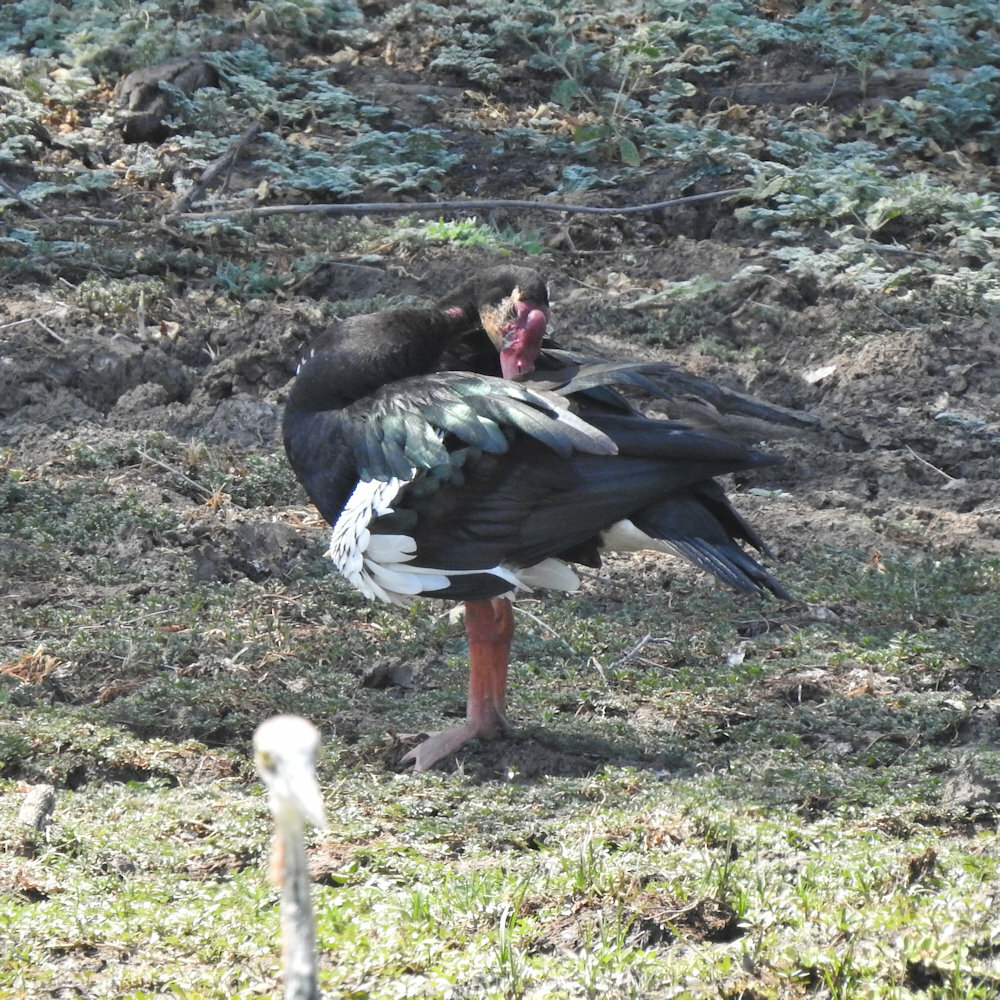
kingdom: Animalia
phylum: Chordata
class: Aves
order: Anseriformes
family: Anatidae
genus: Plectropterus
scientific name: Plectropterus gambensis
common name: Spur-winged goose
